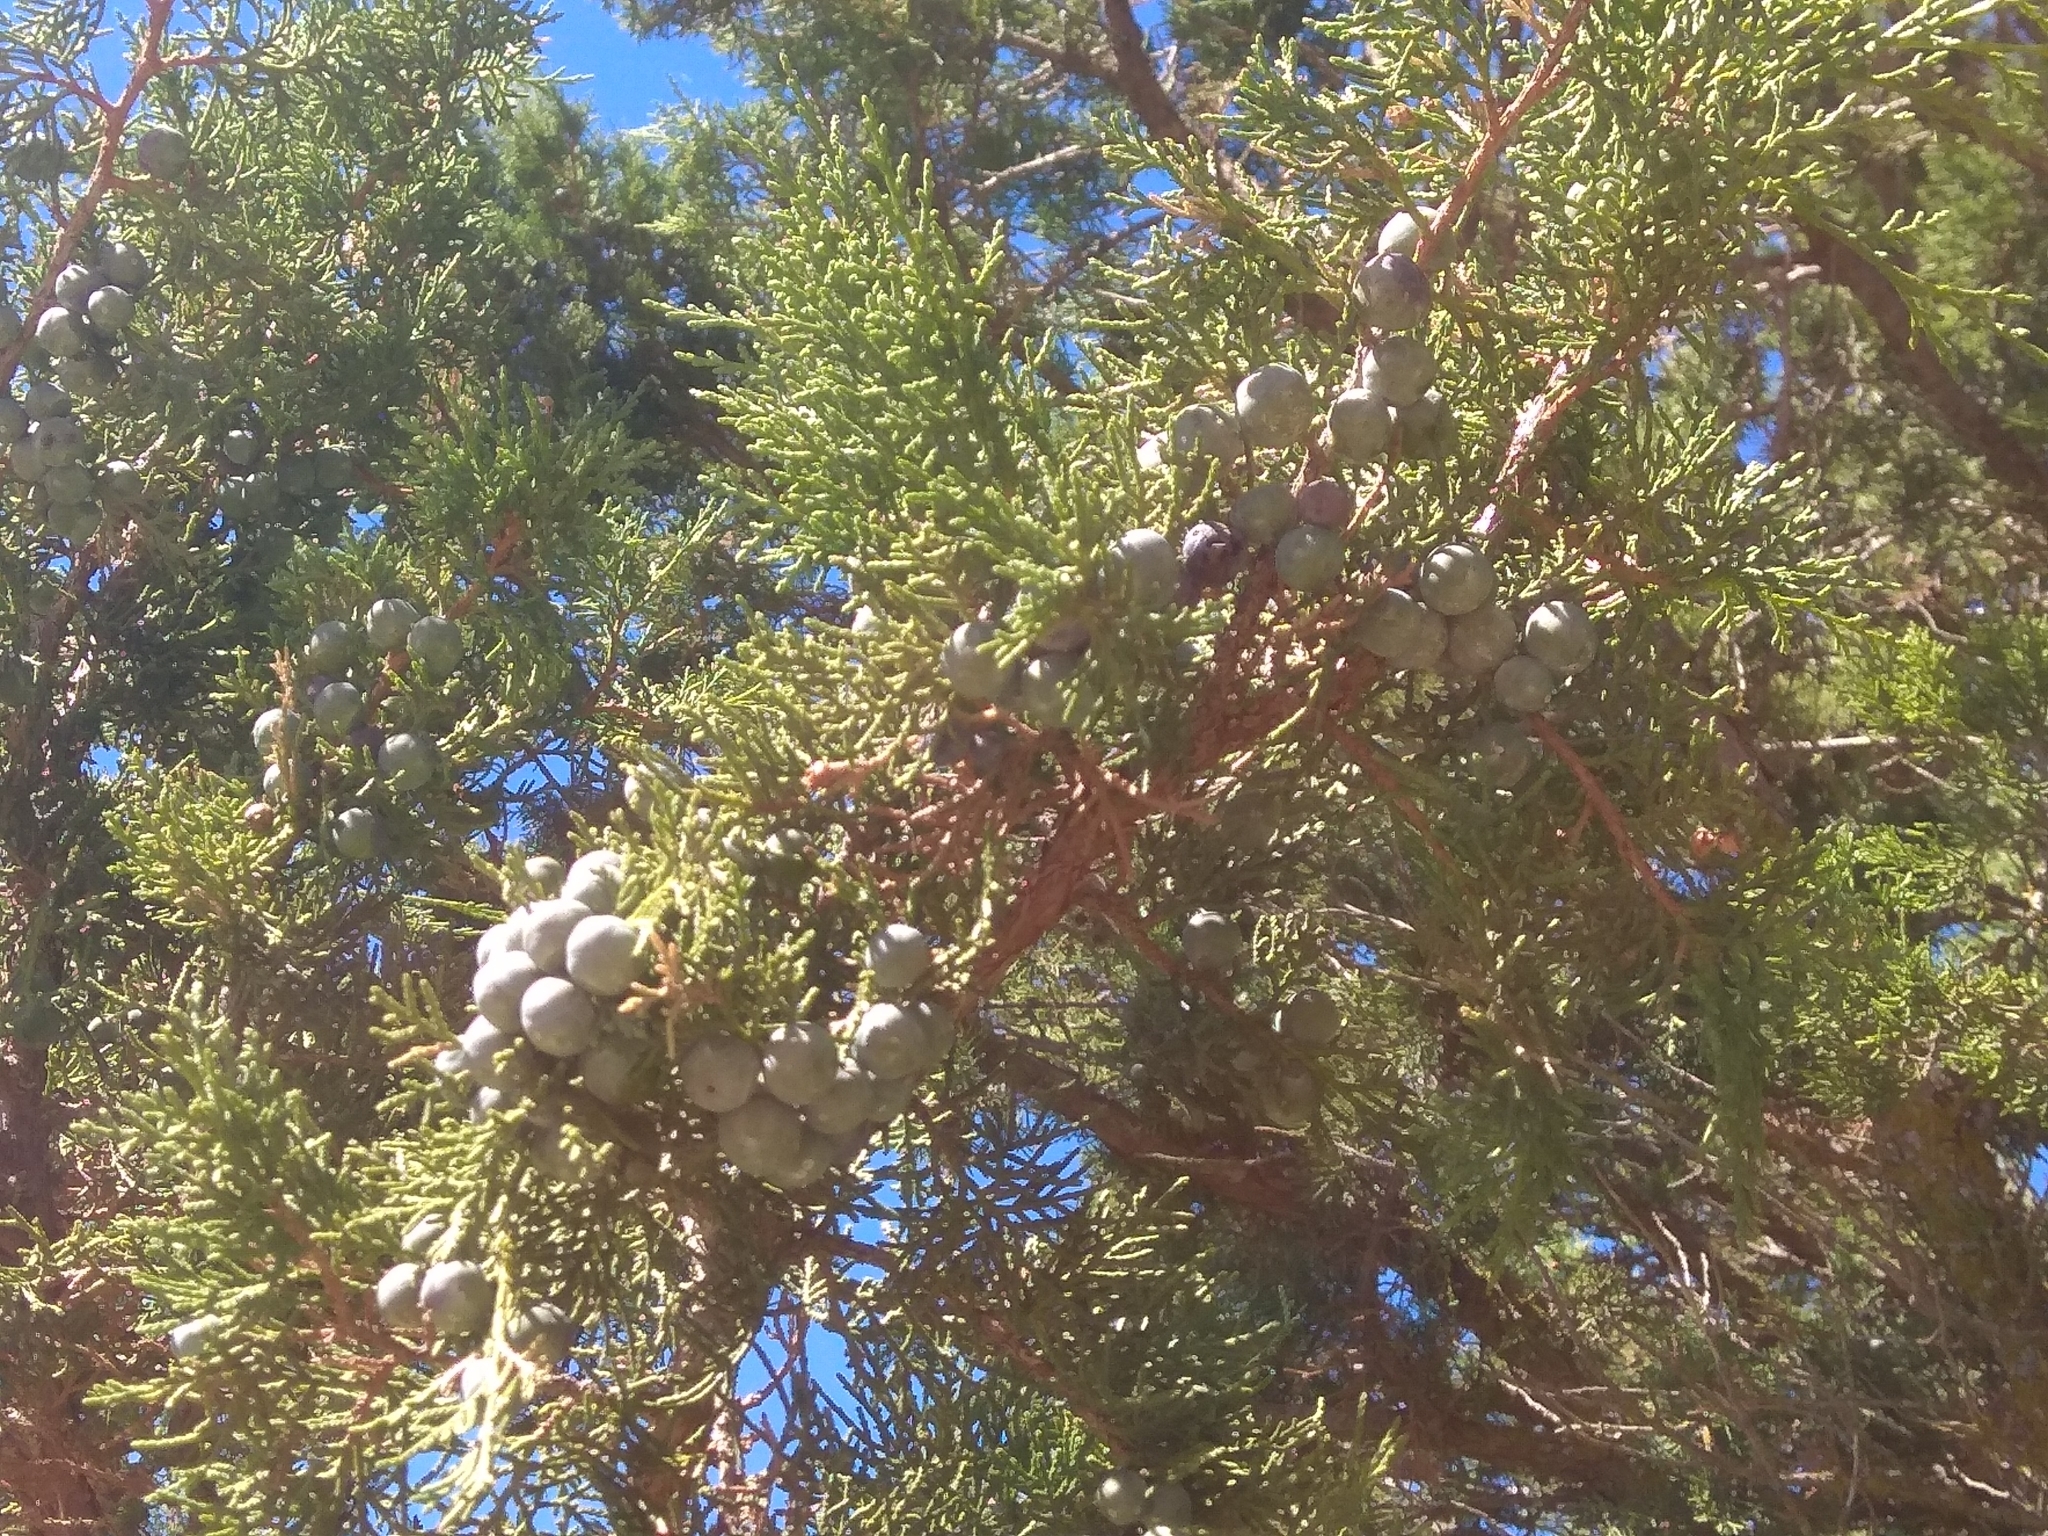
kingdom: Plantae
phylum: Tracheophyta
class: Pinopsida
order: Pinales
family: Cupressaceae
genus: Juniperus
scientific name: Juniperus thurifera
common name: Incense juniper
